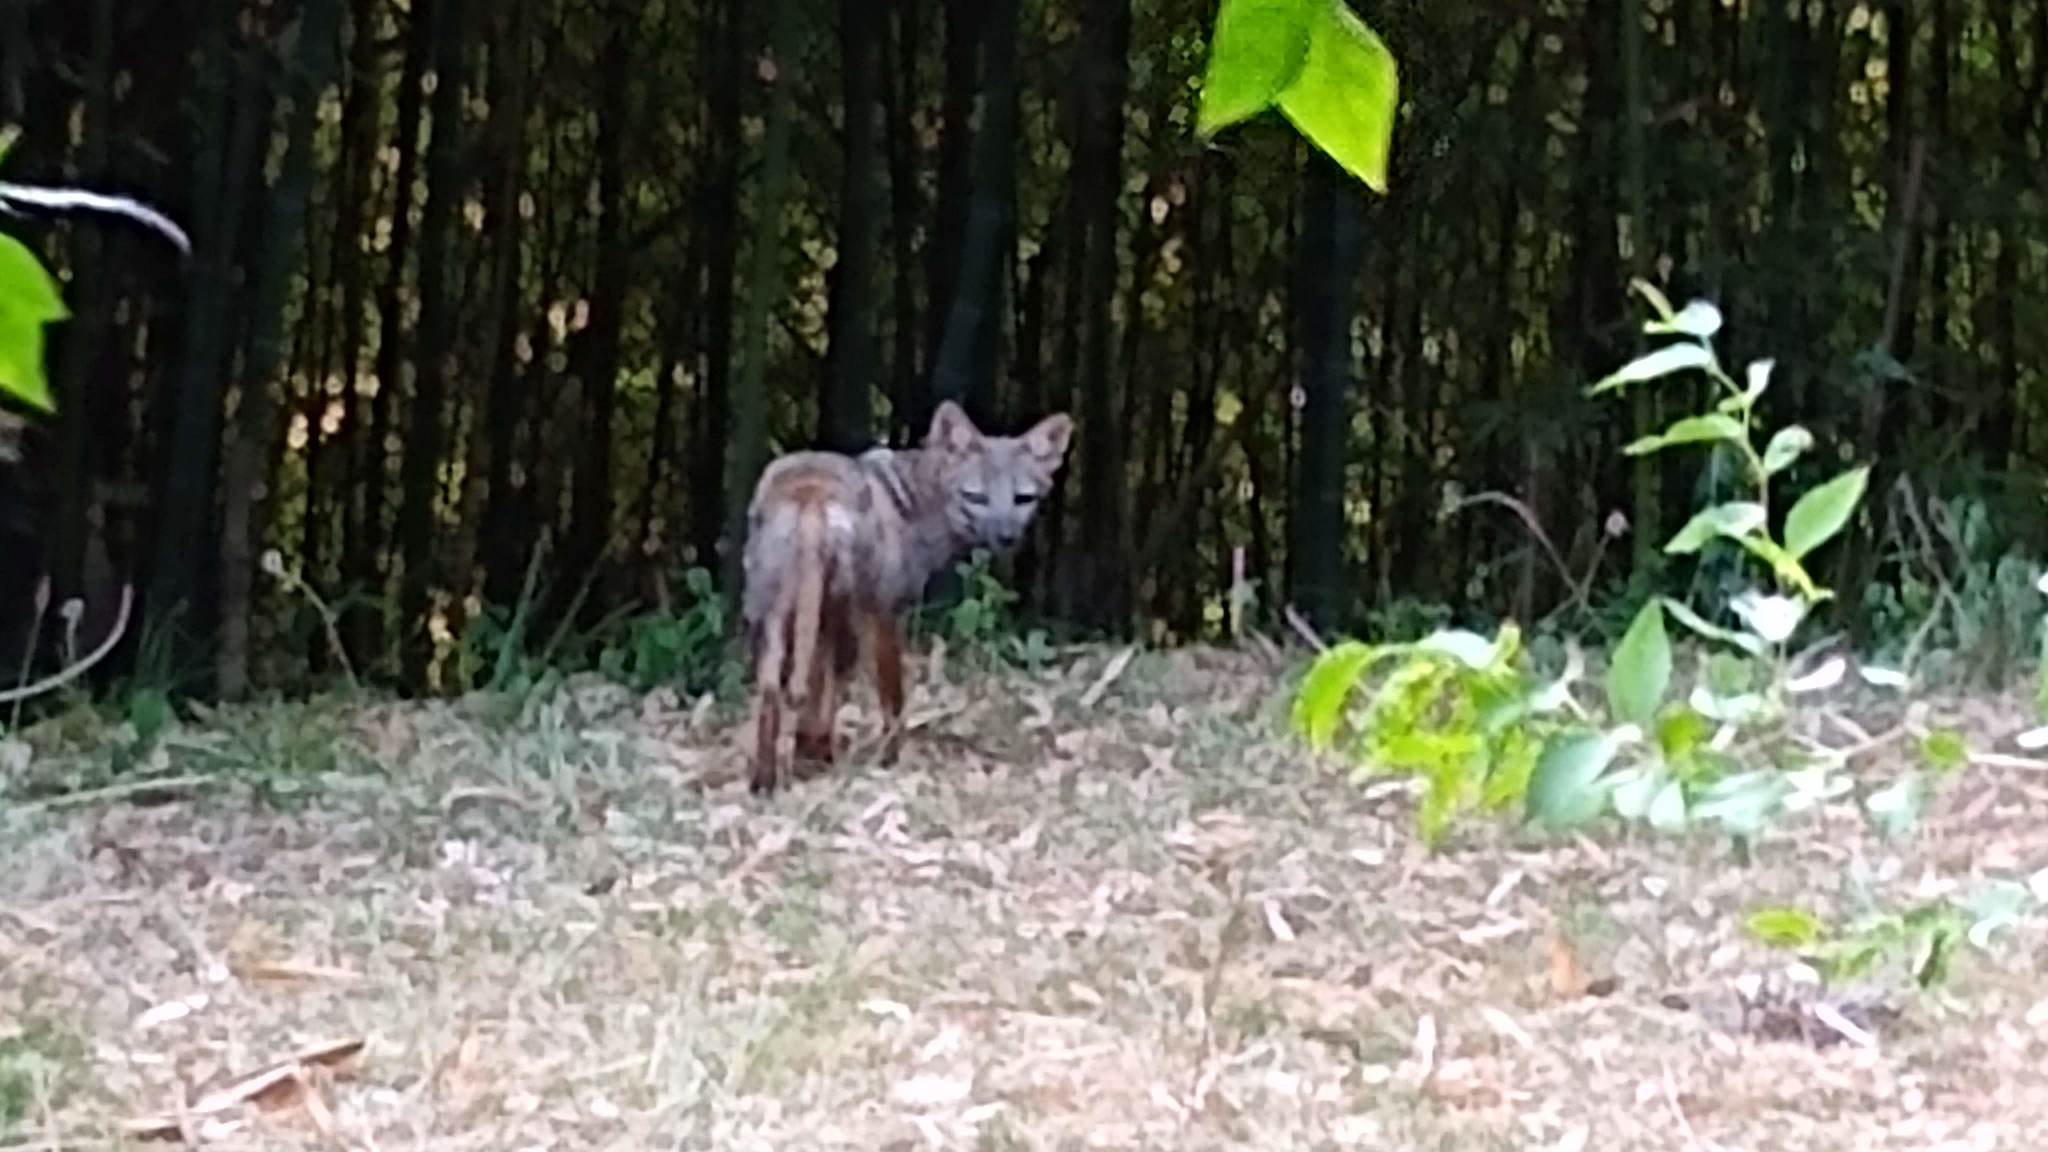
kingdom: Animalia
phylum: Chordata
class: Mammalia
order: Carnivora
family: Canidae
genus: Lycalopex
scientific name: Lycalopex gymnocercus
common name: Pampas fox
